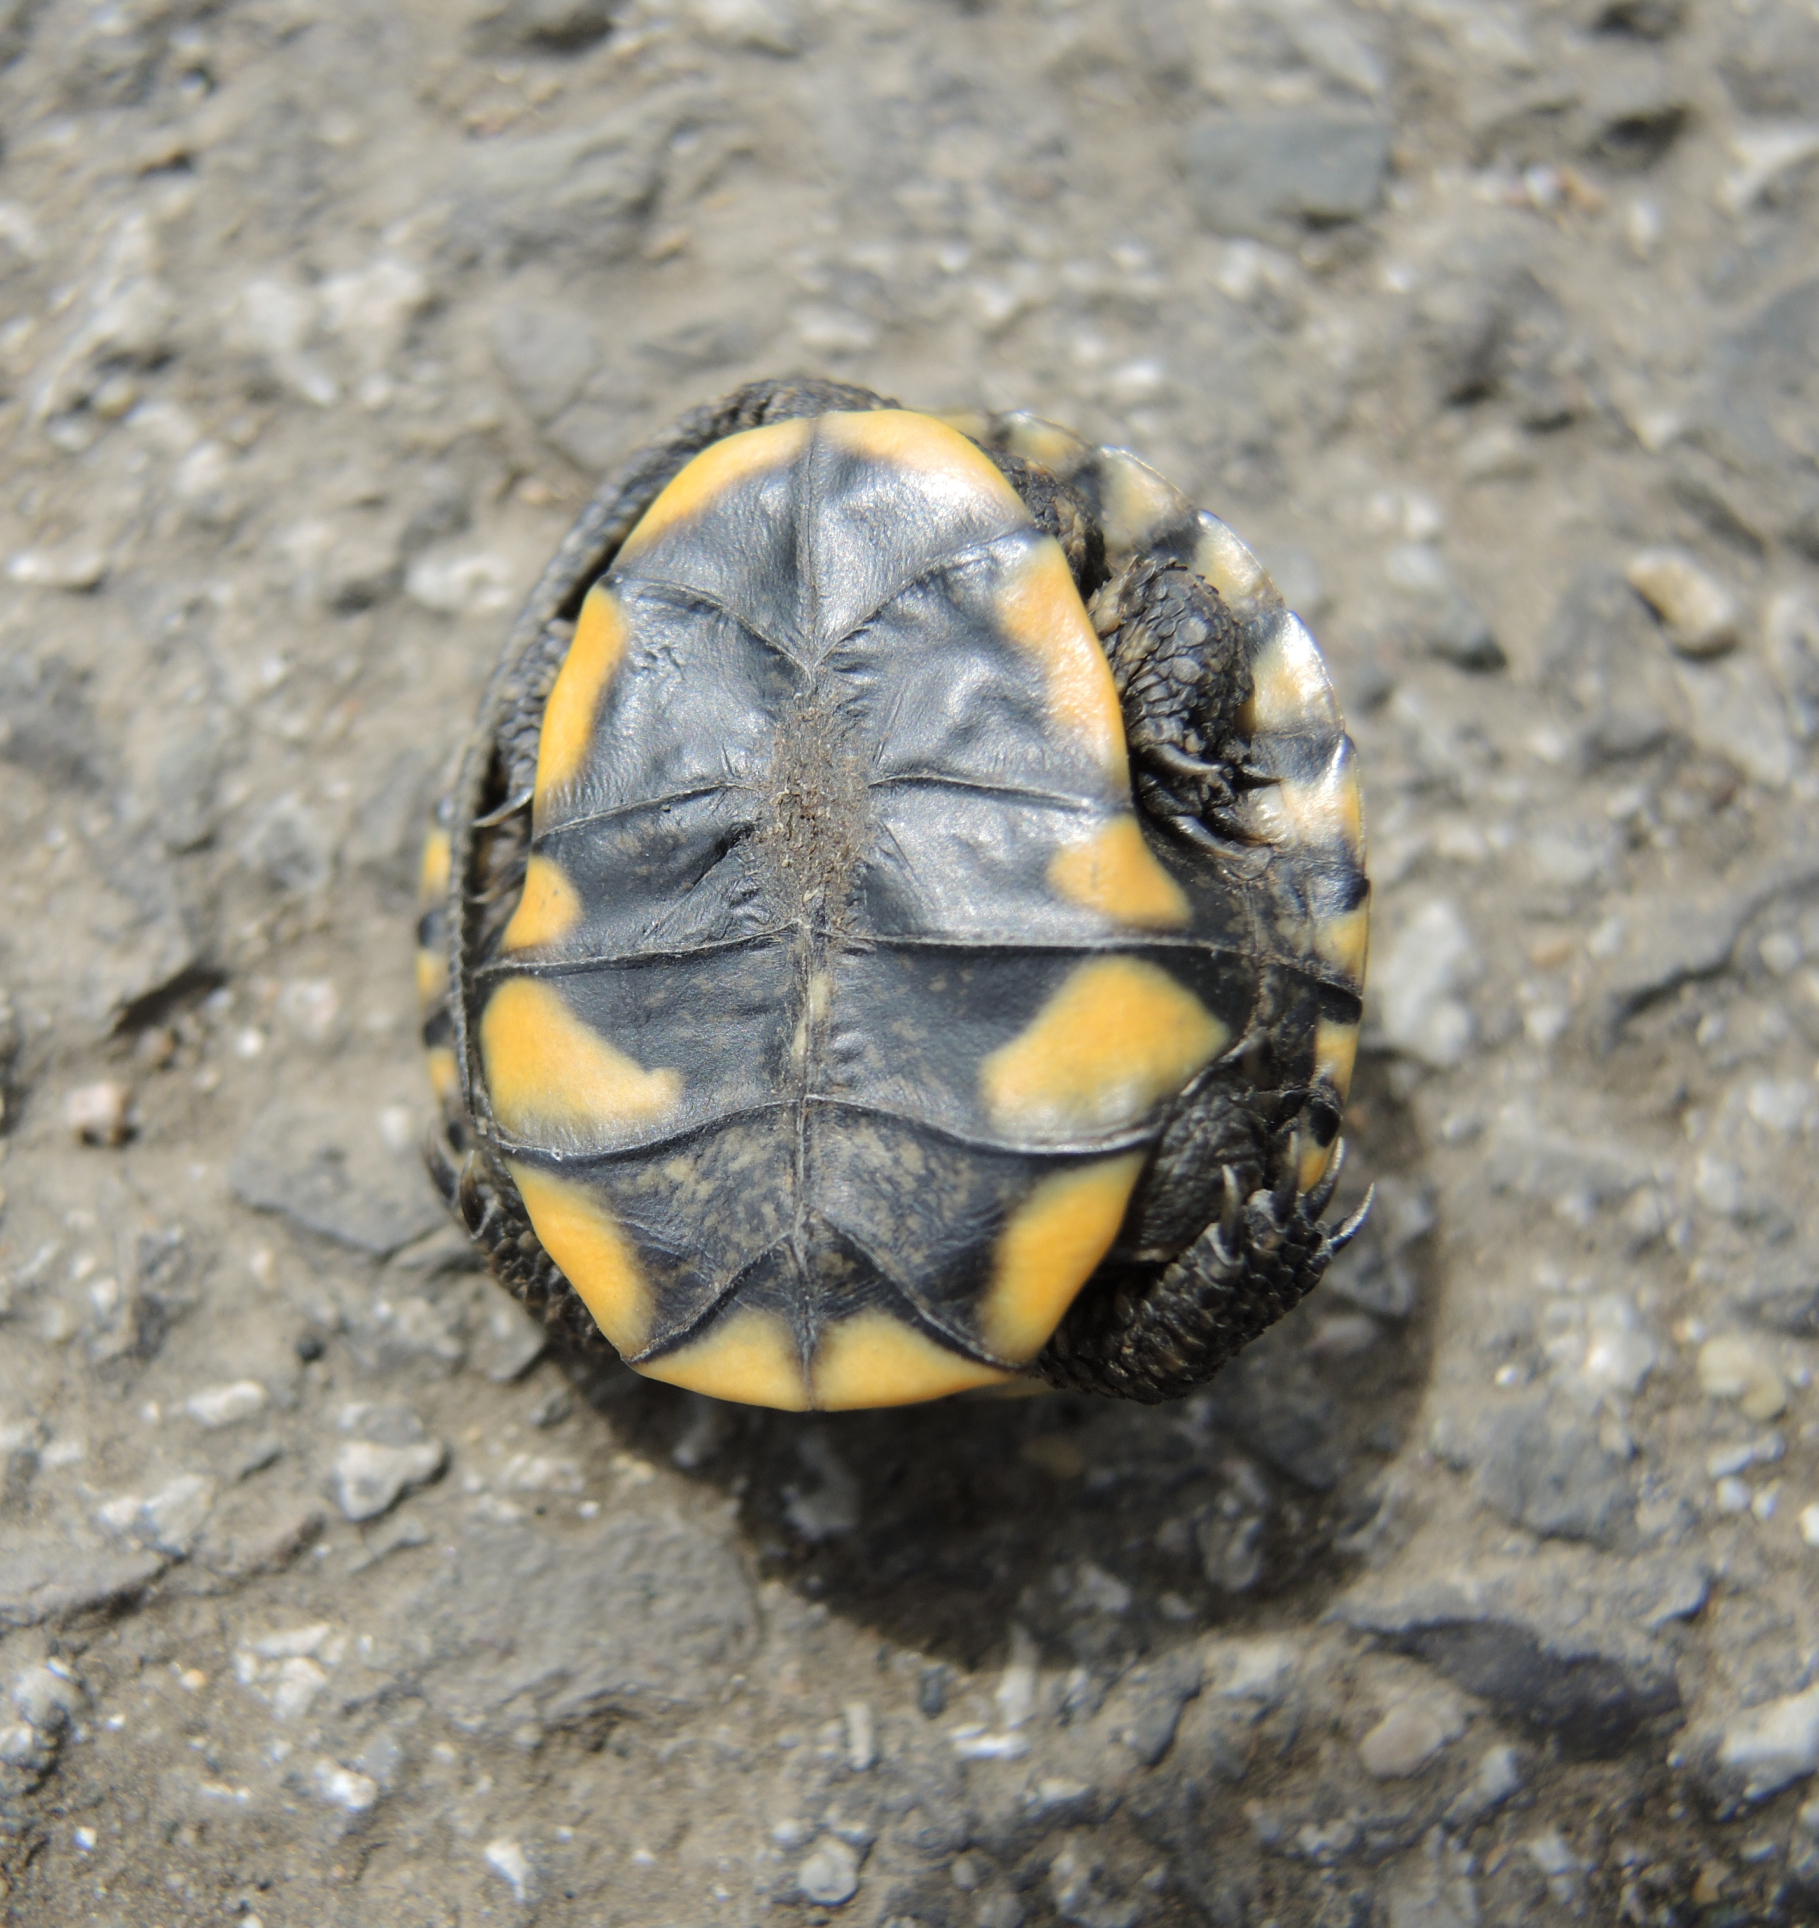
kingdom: Animalia
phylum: Chordata
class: Testudines
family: Emydidae
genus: Emys
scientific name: Emys orbicularis
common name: European pond turtle
